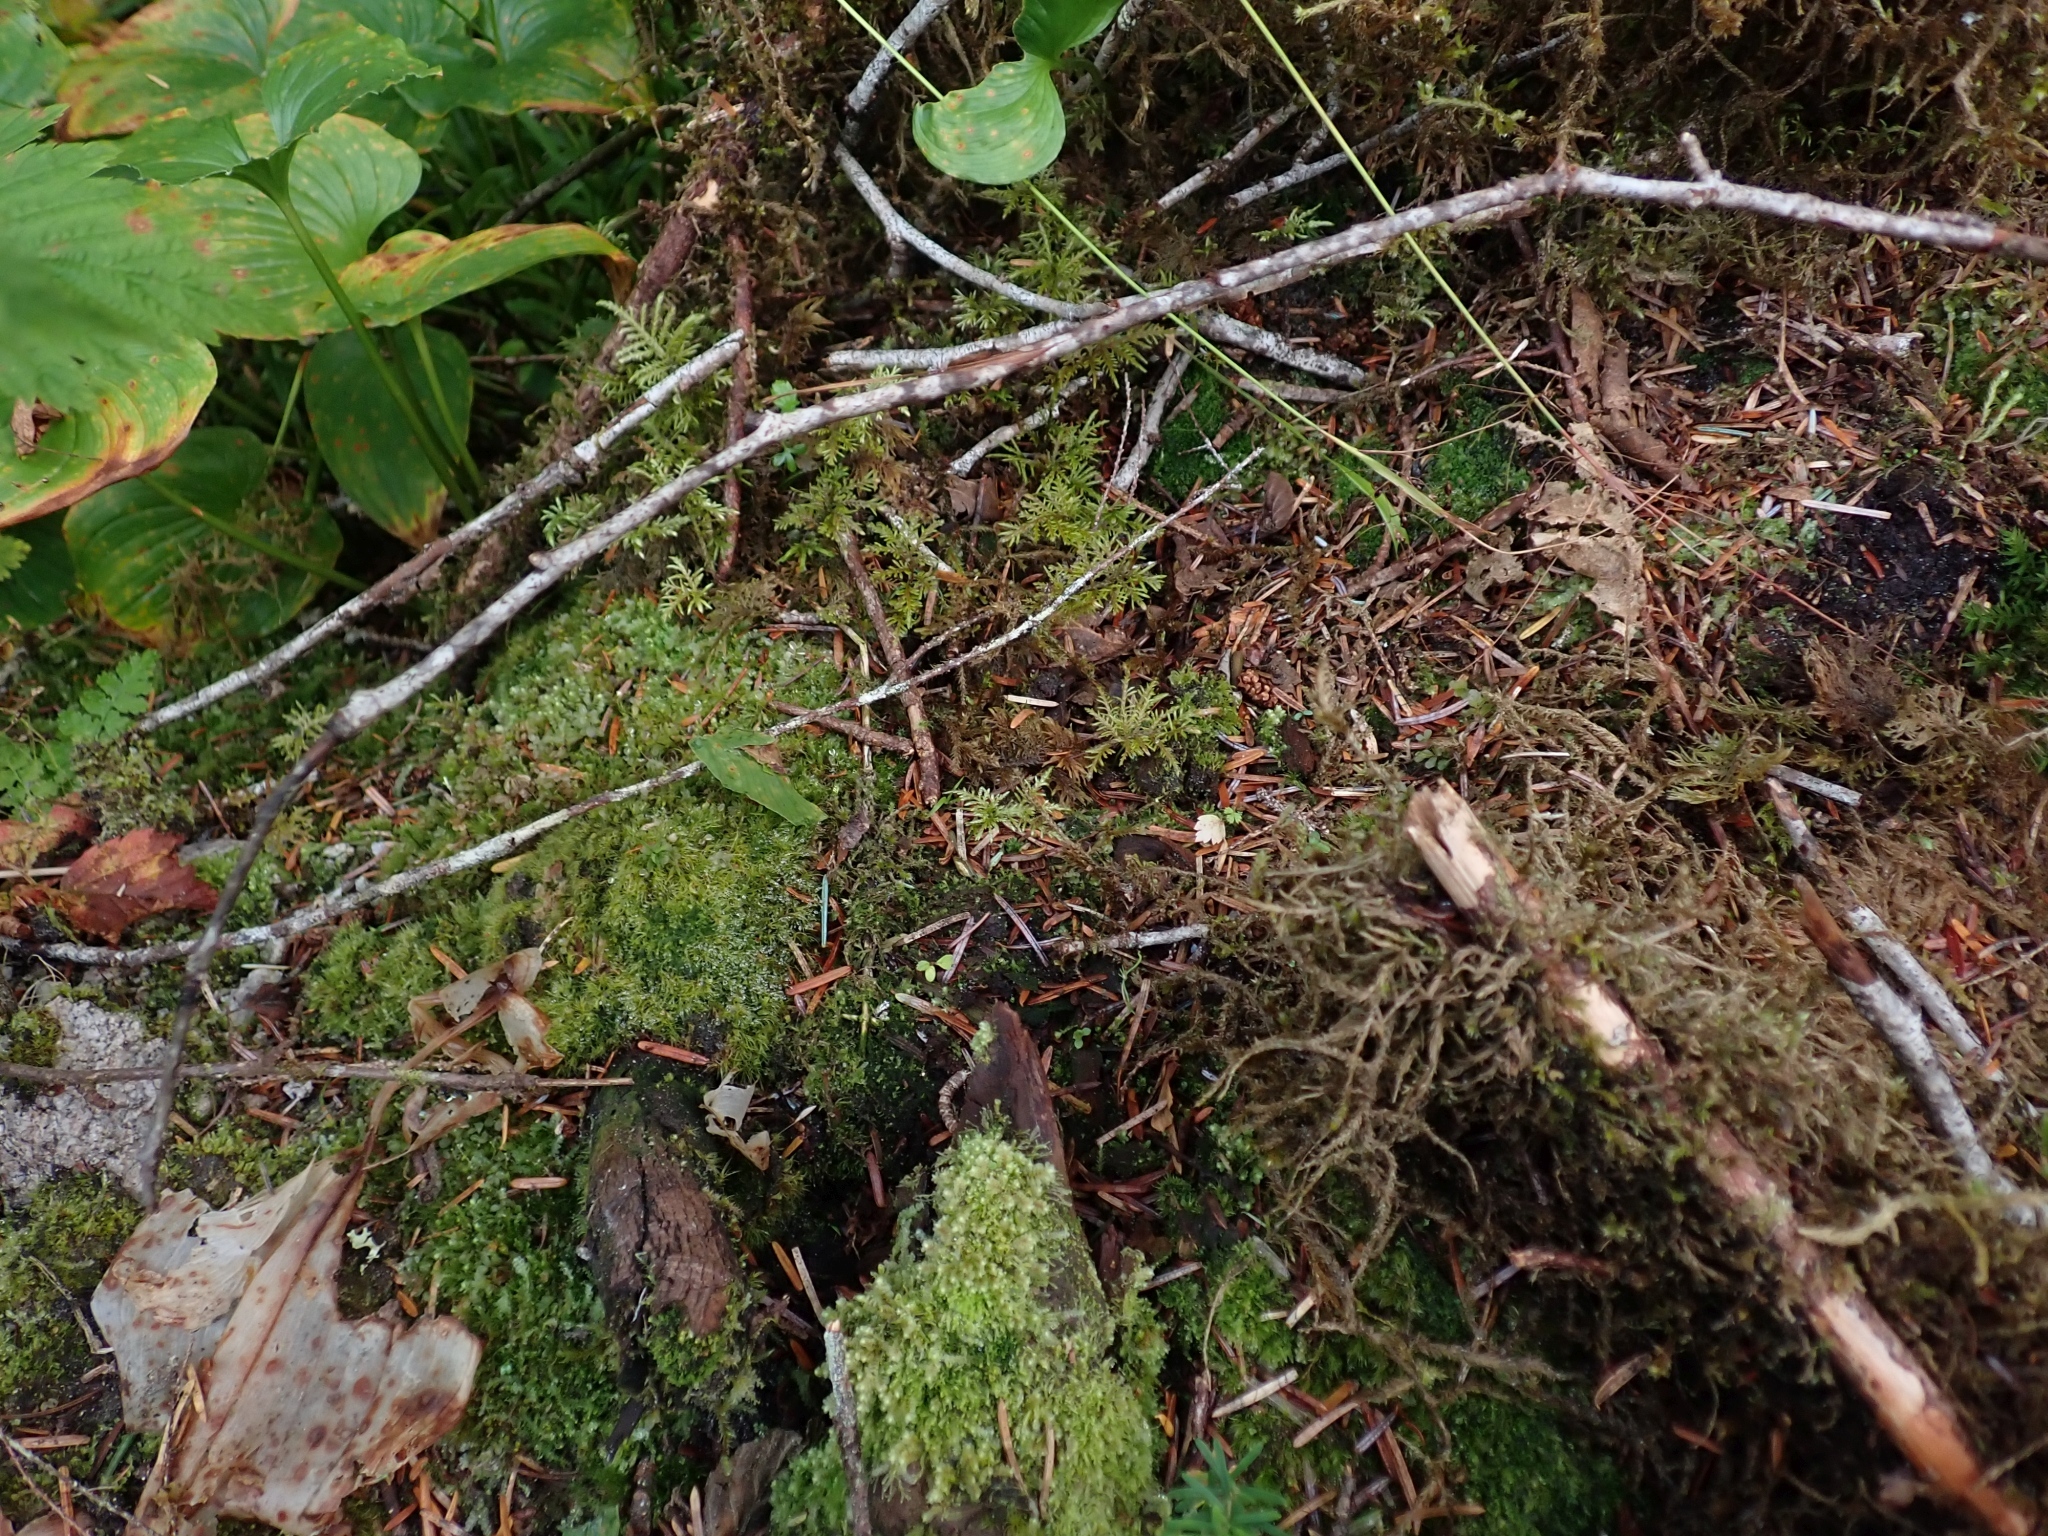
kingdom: Plantae
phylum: Bryophyta
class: Bryopsida
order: Hypnales
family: Hylocomiaceae
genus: Hylocomium
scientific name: Hylocomium splendens
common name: Stairstep moss
